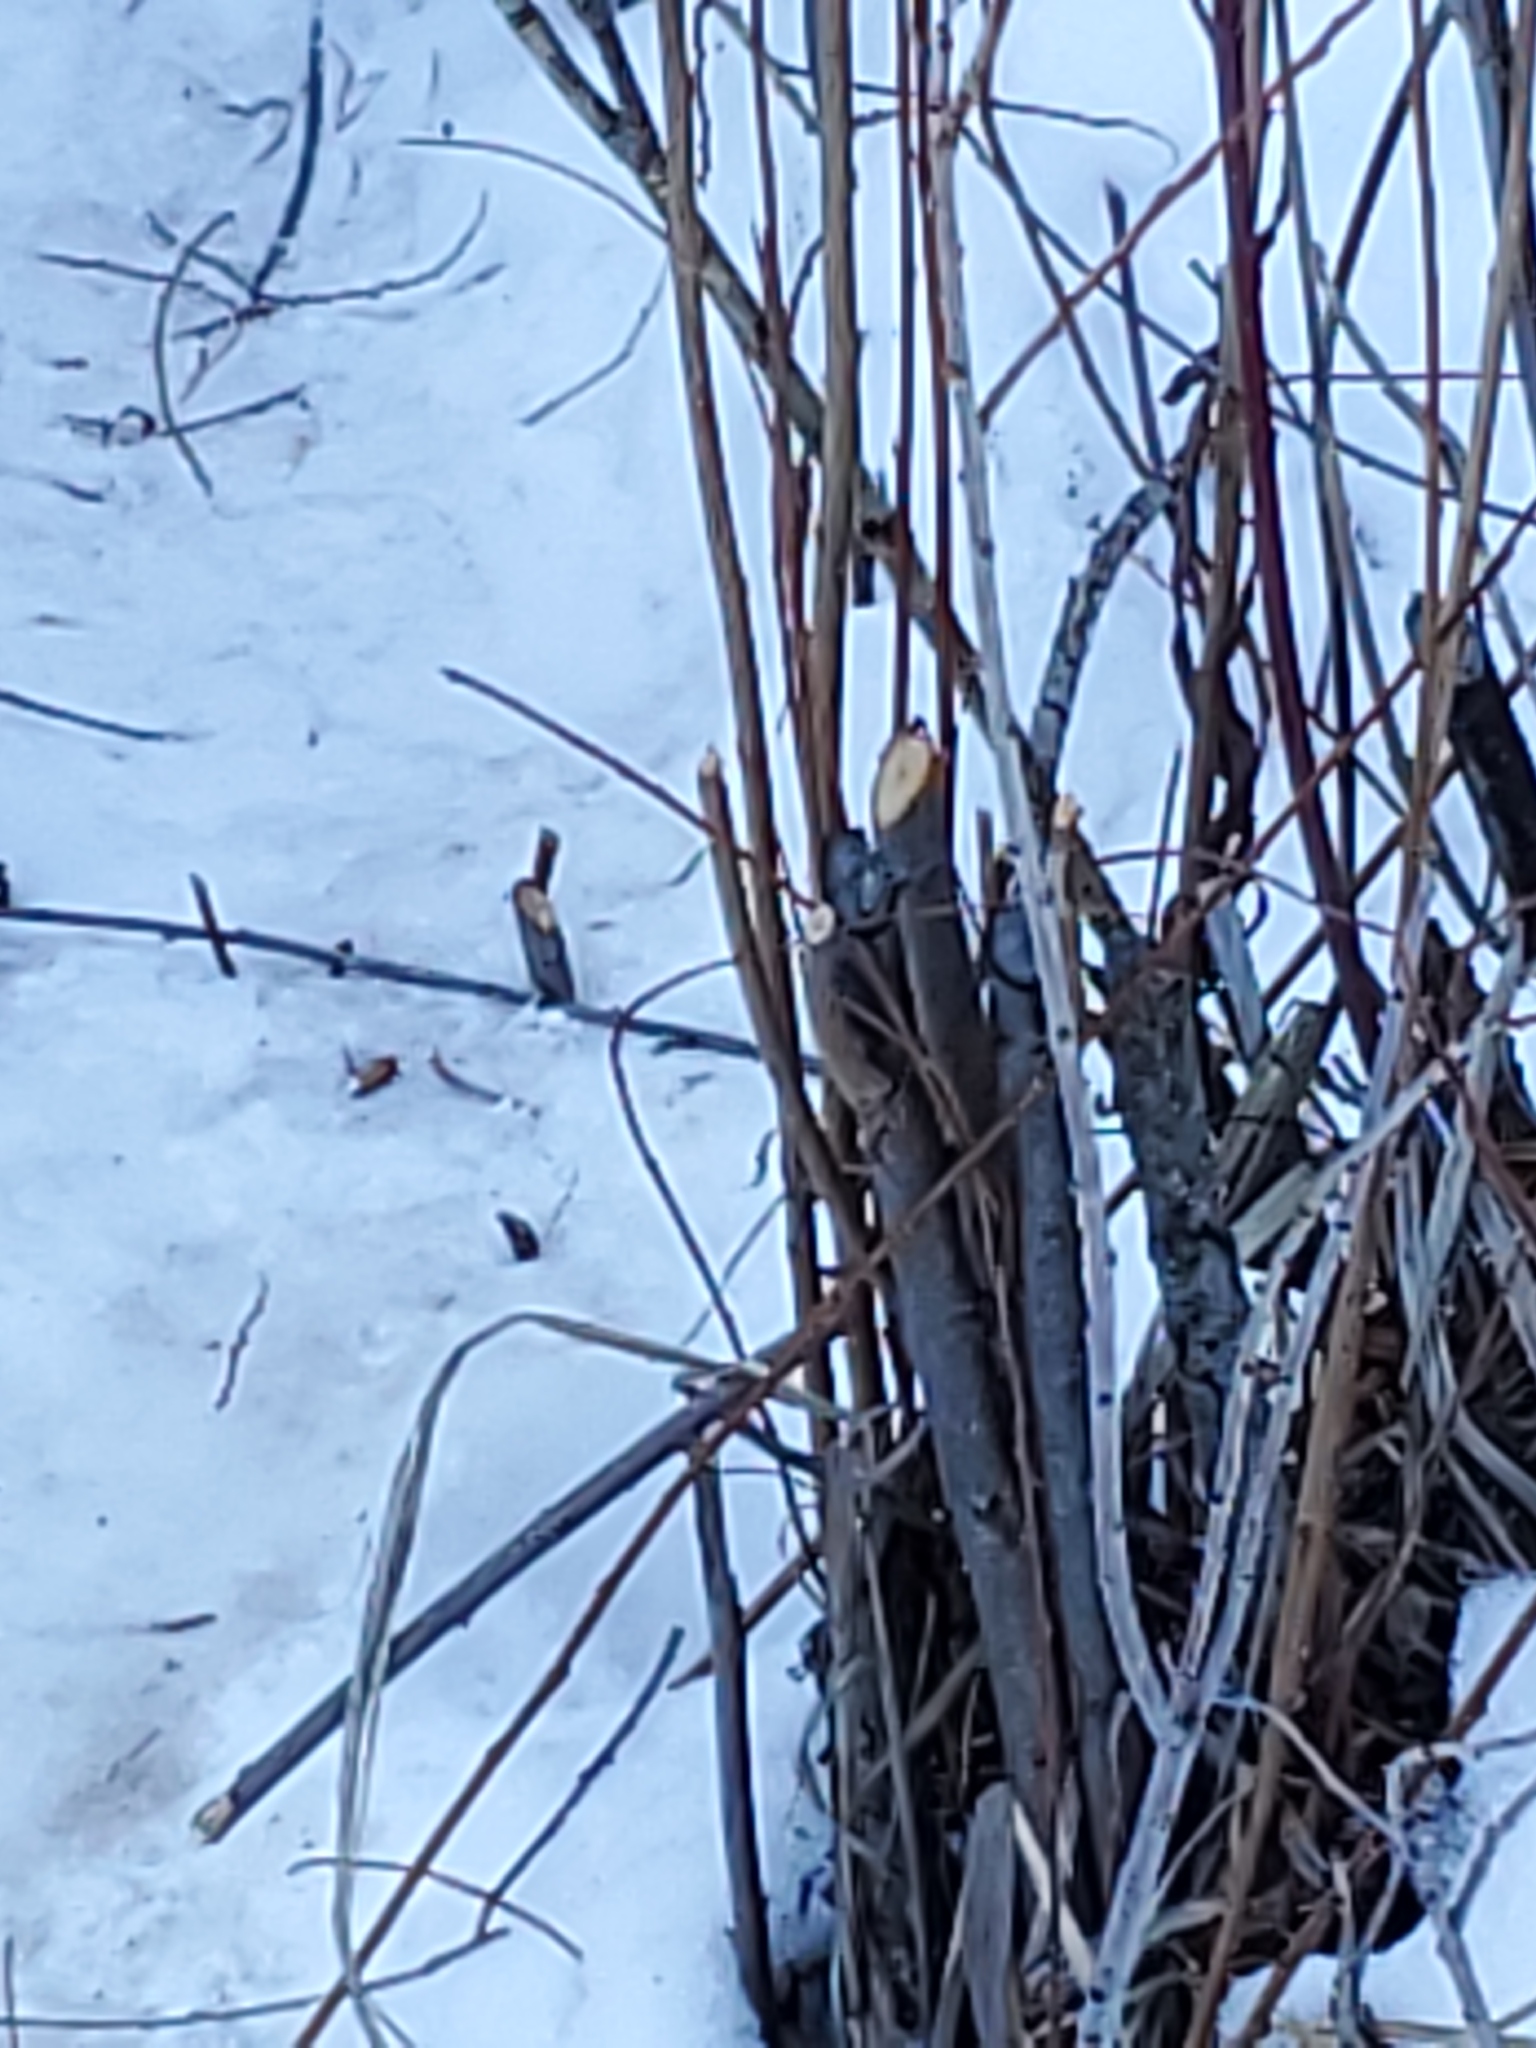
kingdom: Animalia
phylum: Chordata
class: Mammalia
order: Rodentia
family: Castoridae
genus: Castor
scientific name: Castor canadensis
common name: American beaver
